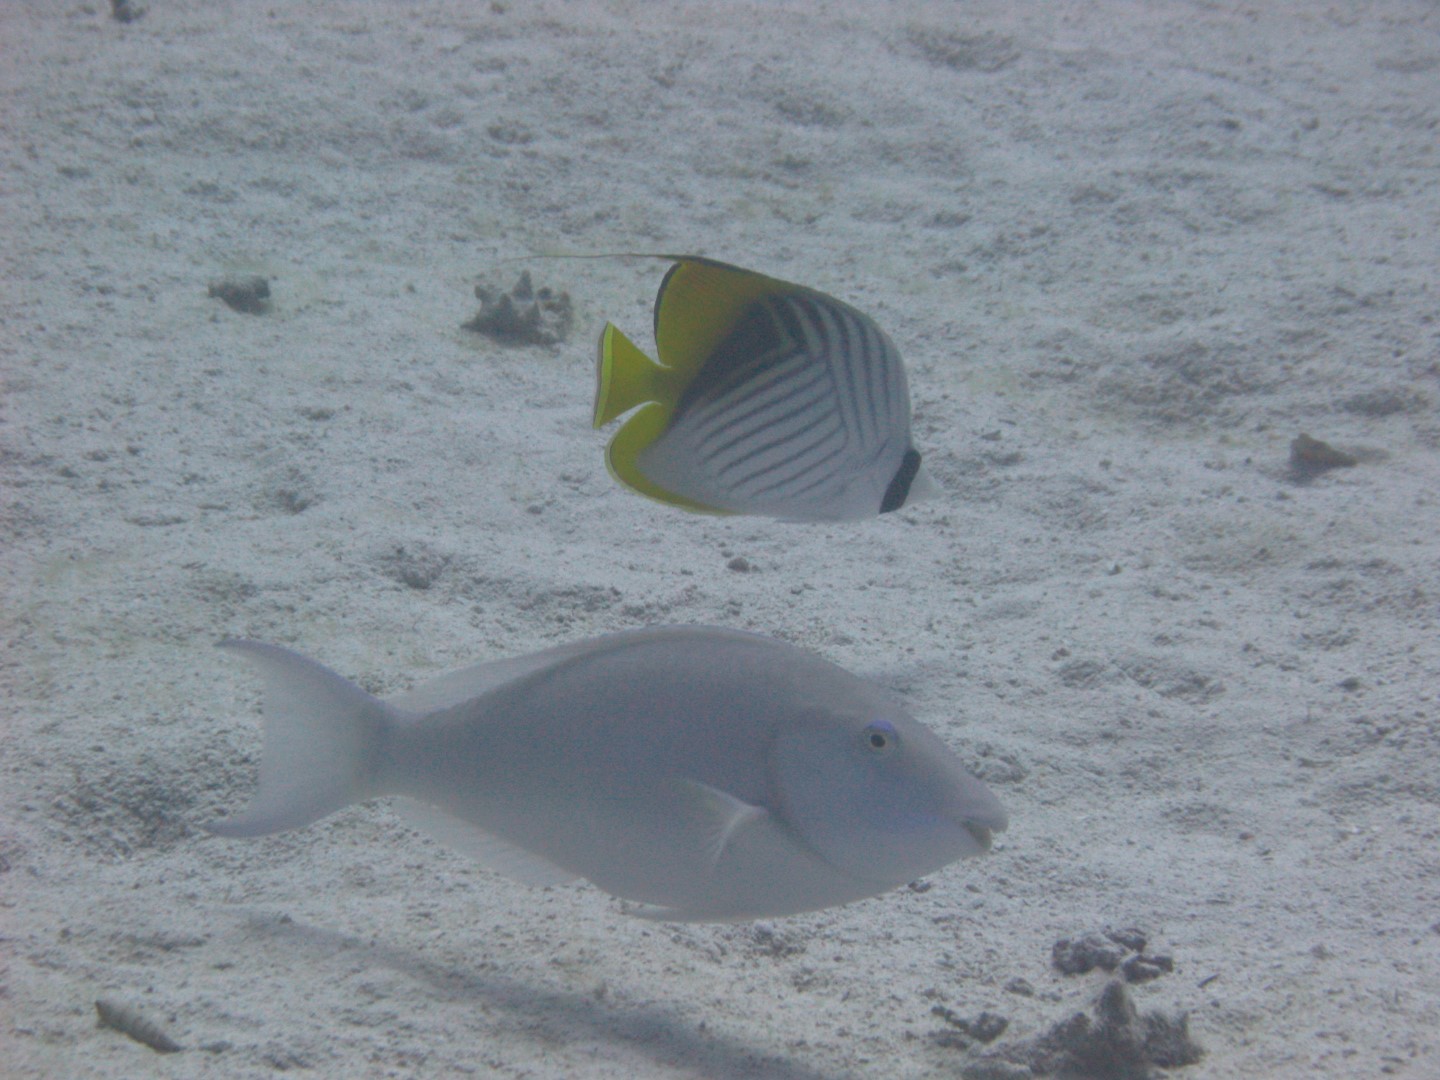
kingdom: Animalia
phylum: Chordata
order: Perciformes
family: Scaridae
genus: Hipposcarus
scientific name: Hipposcarus harid
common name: Candelamoa parrotfish
